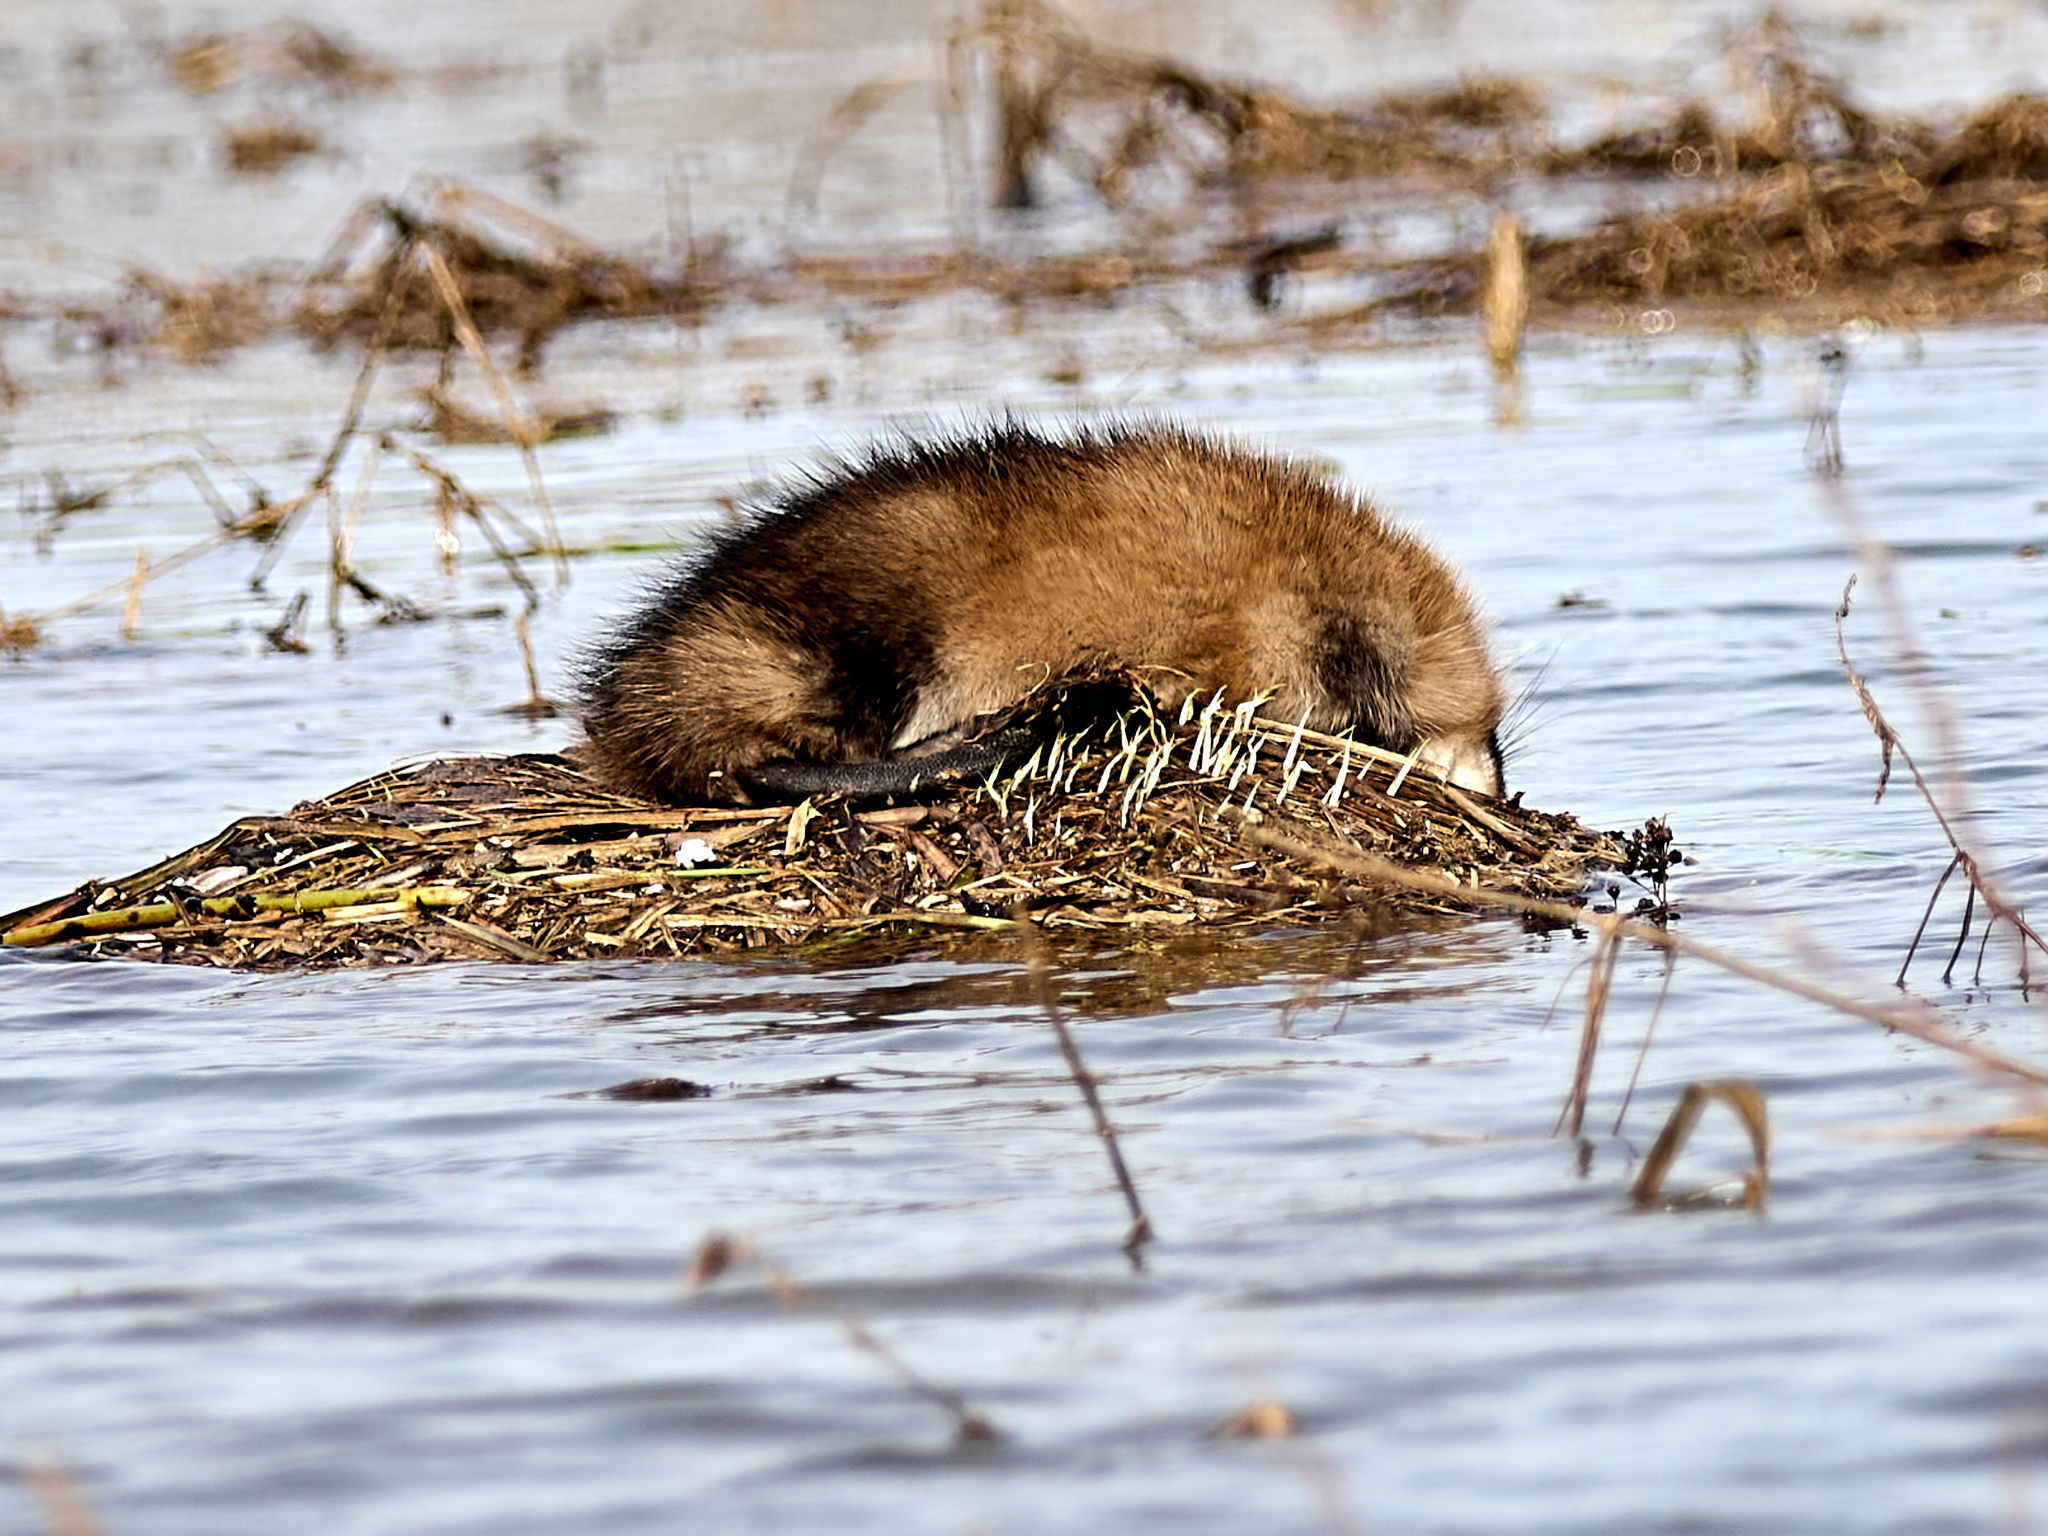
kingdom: Animalia
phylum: Chordata
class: Mammalia
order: Rodentia
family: Cricetidae
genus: Ondatra
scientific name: Ondatra zibethicus
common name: Muskrat
